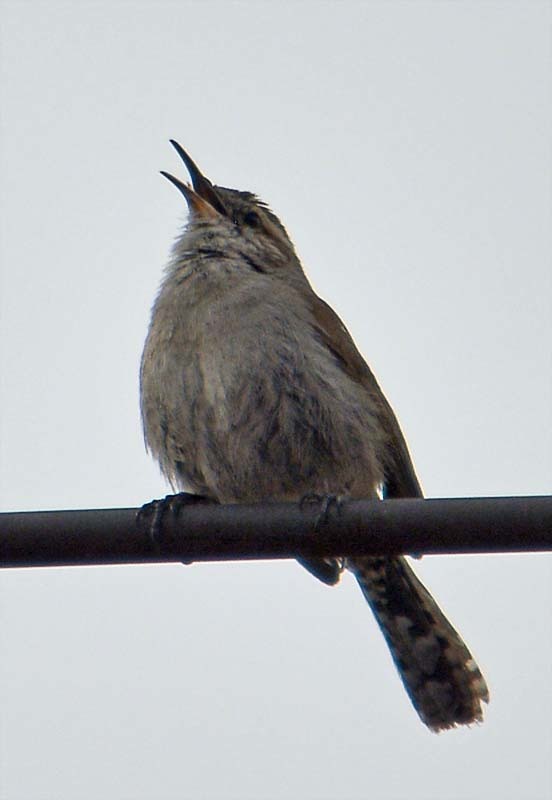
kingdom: Animalia
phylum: Chordata
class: Aves
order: Passeriformes
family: Troglodytidae
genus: Thryomanes
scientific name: Thryomanes bewickii
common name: Bewick's wren
